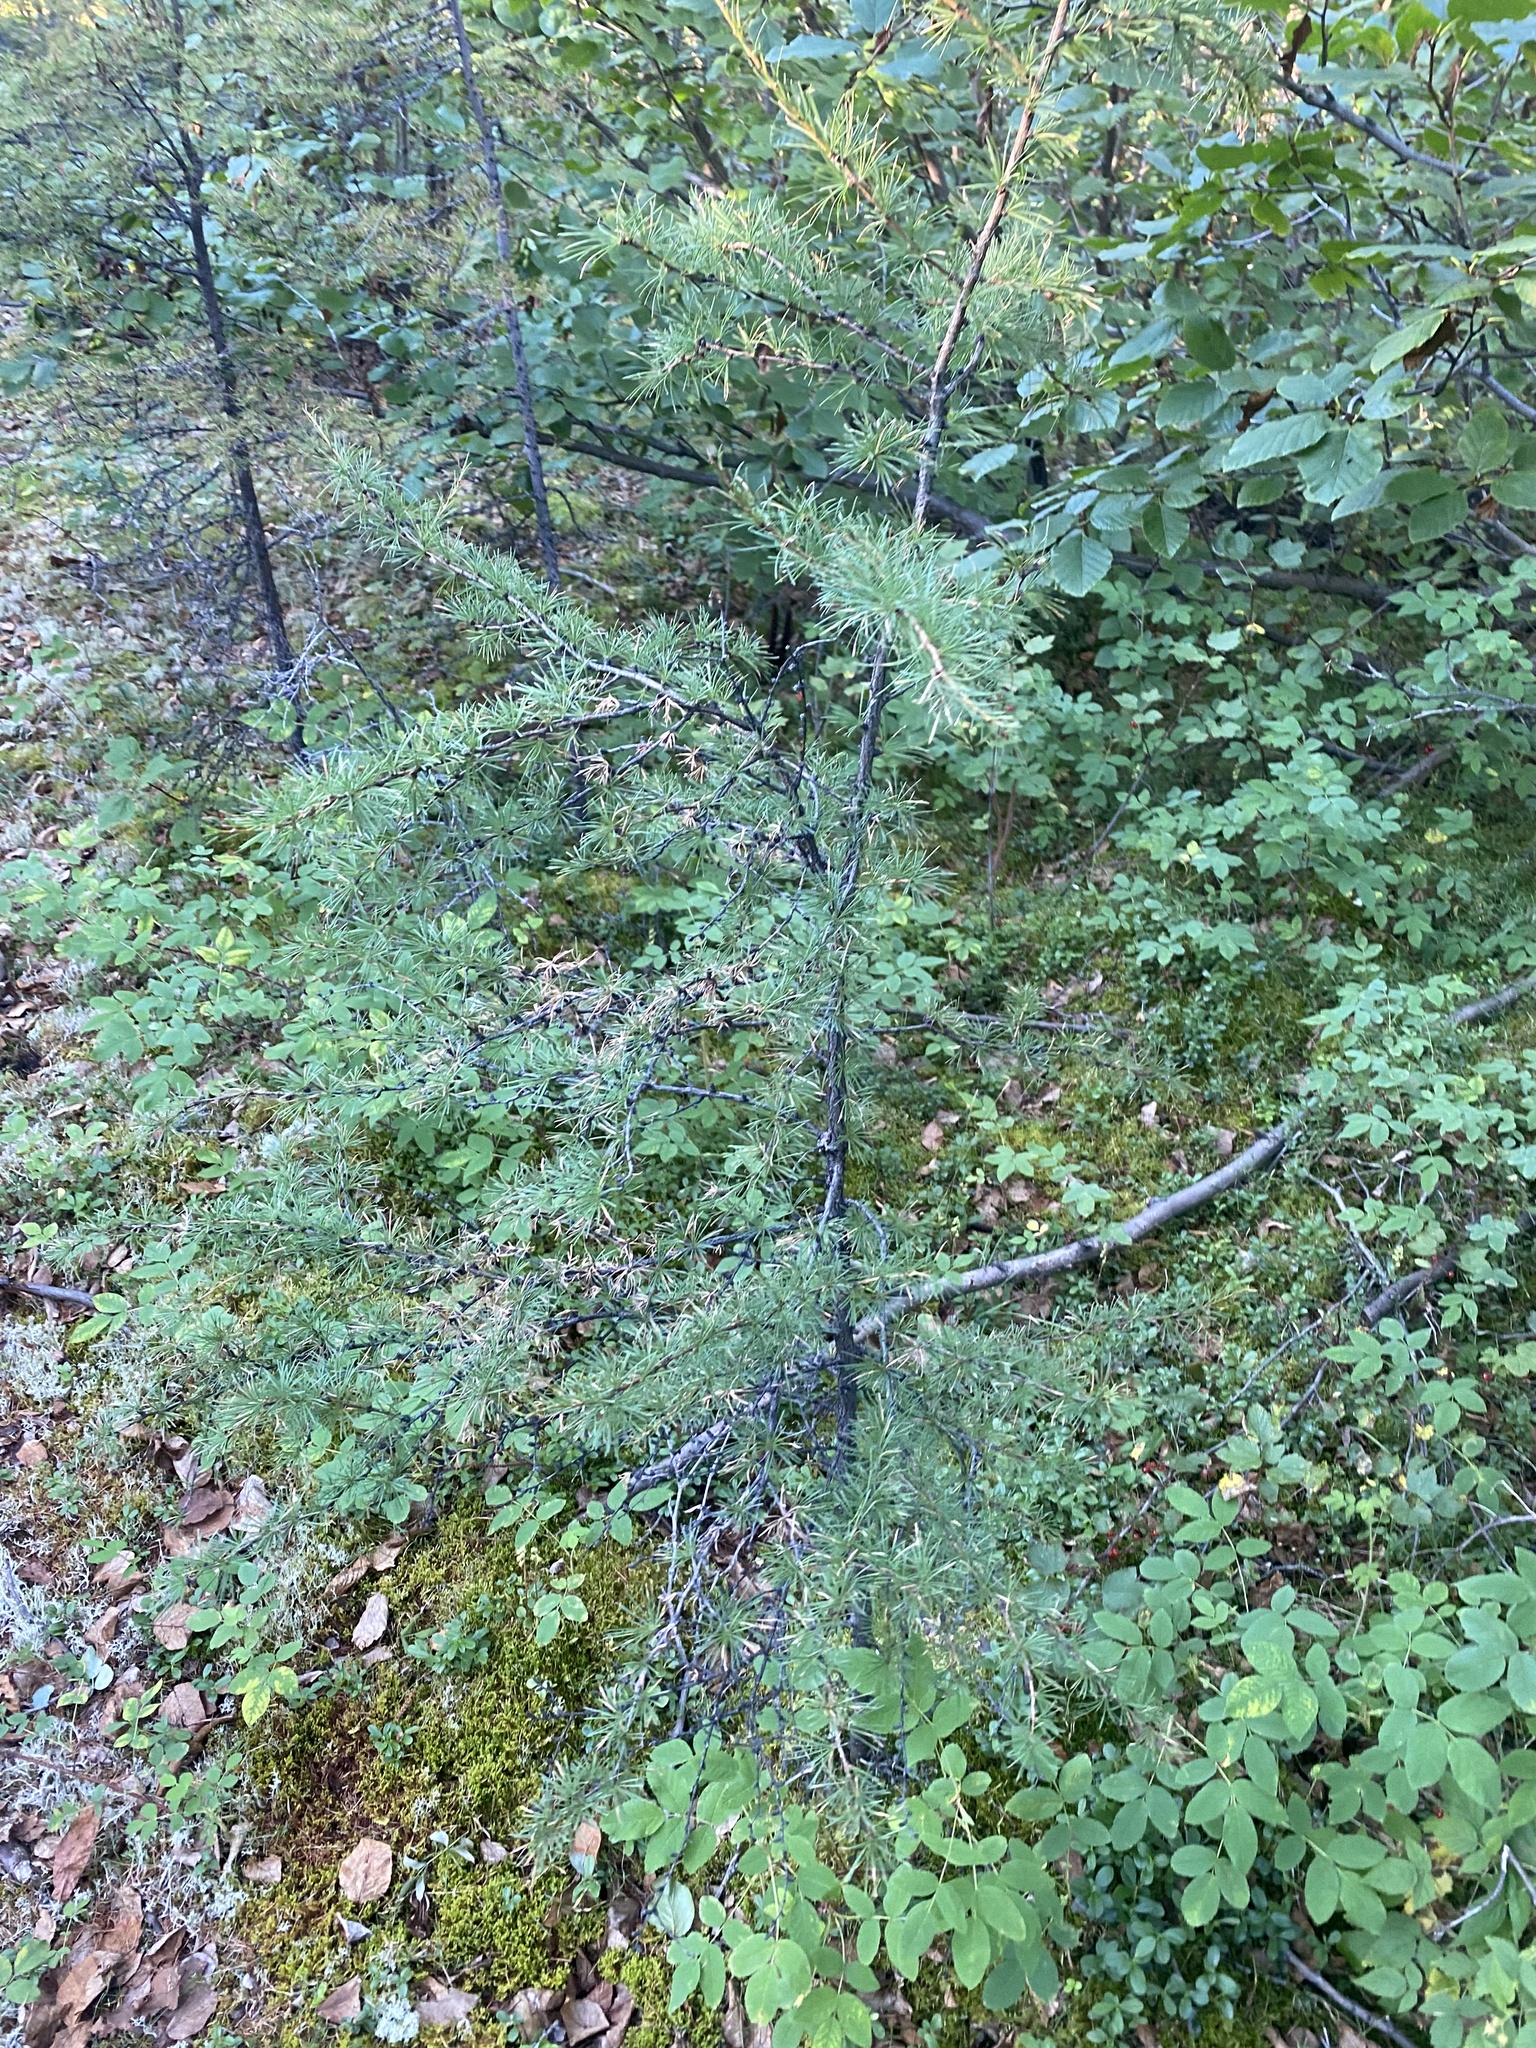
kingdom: Plantae
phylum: Tracheophyta
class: Pinopsida
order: Pinales
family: Pinaceae
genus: Larix
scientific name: Larix
